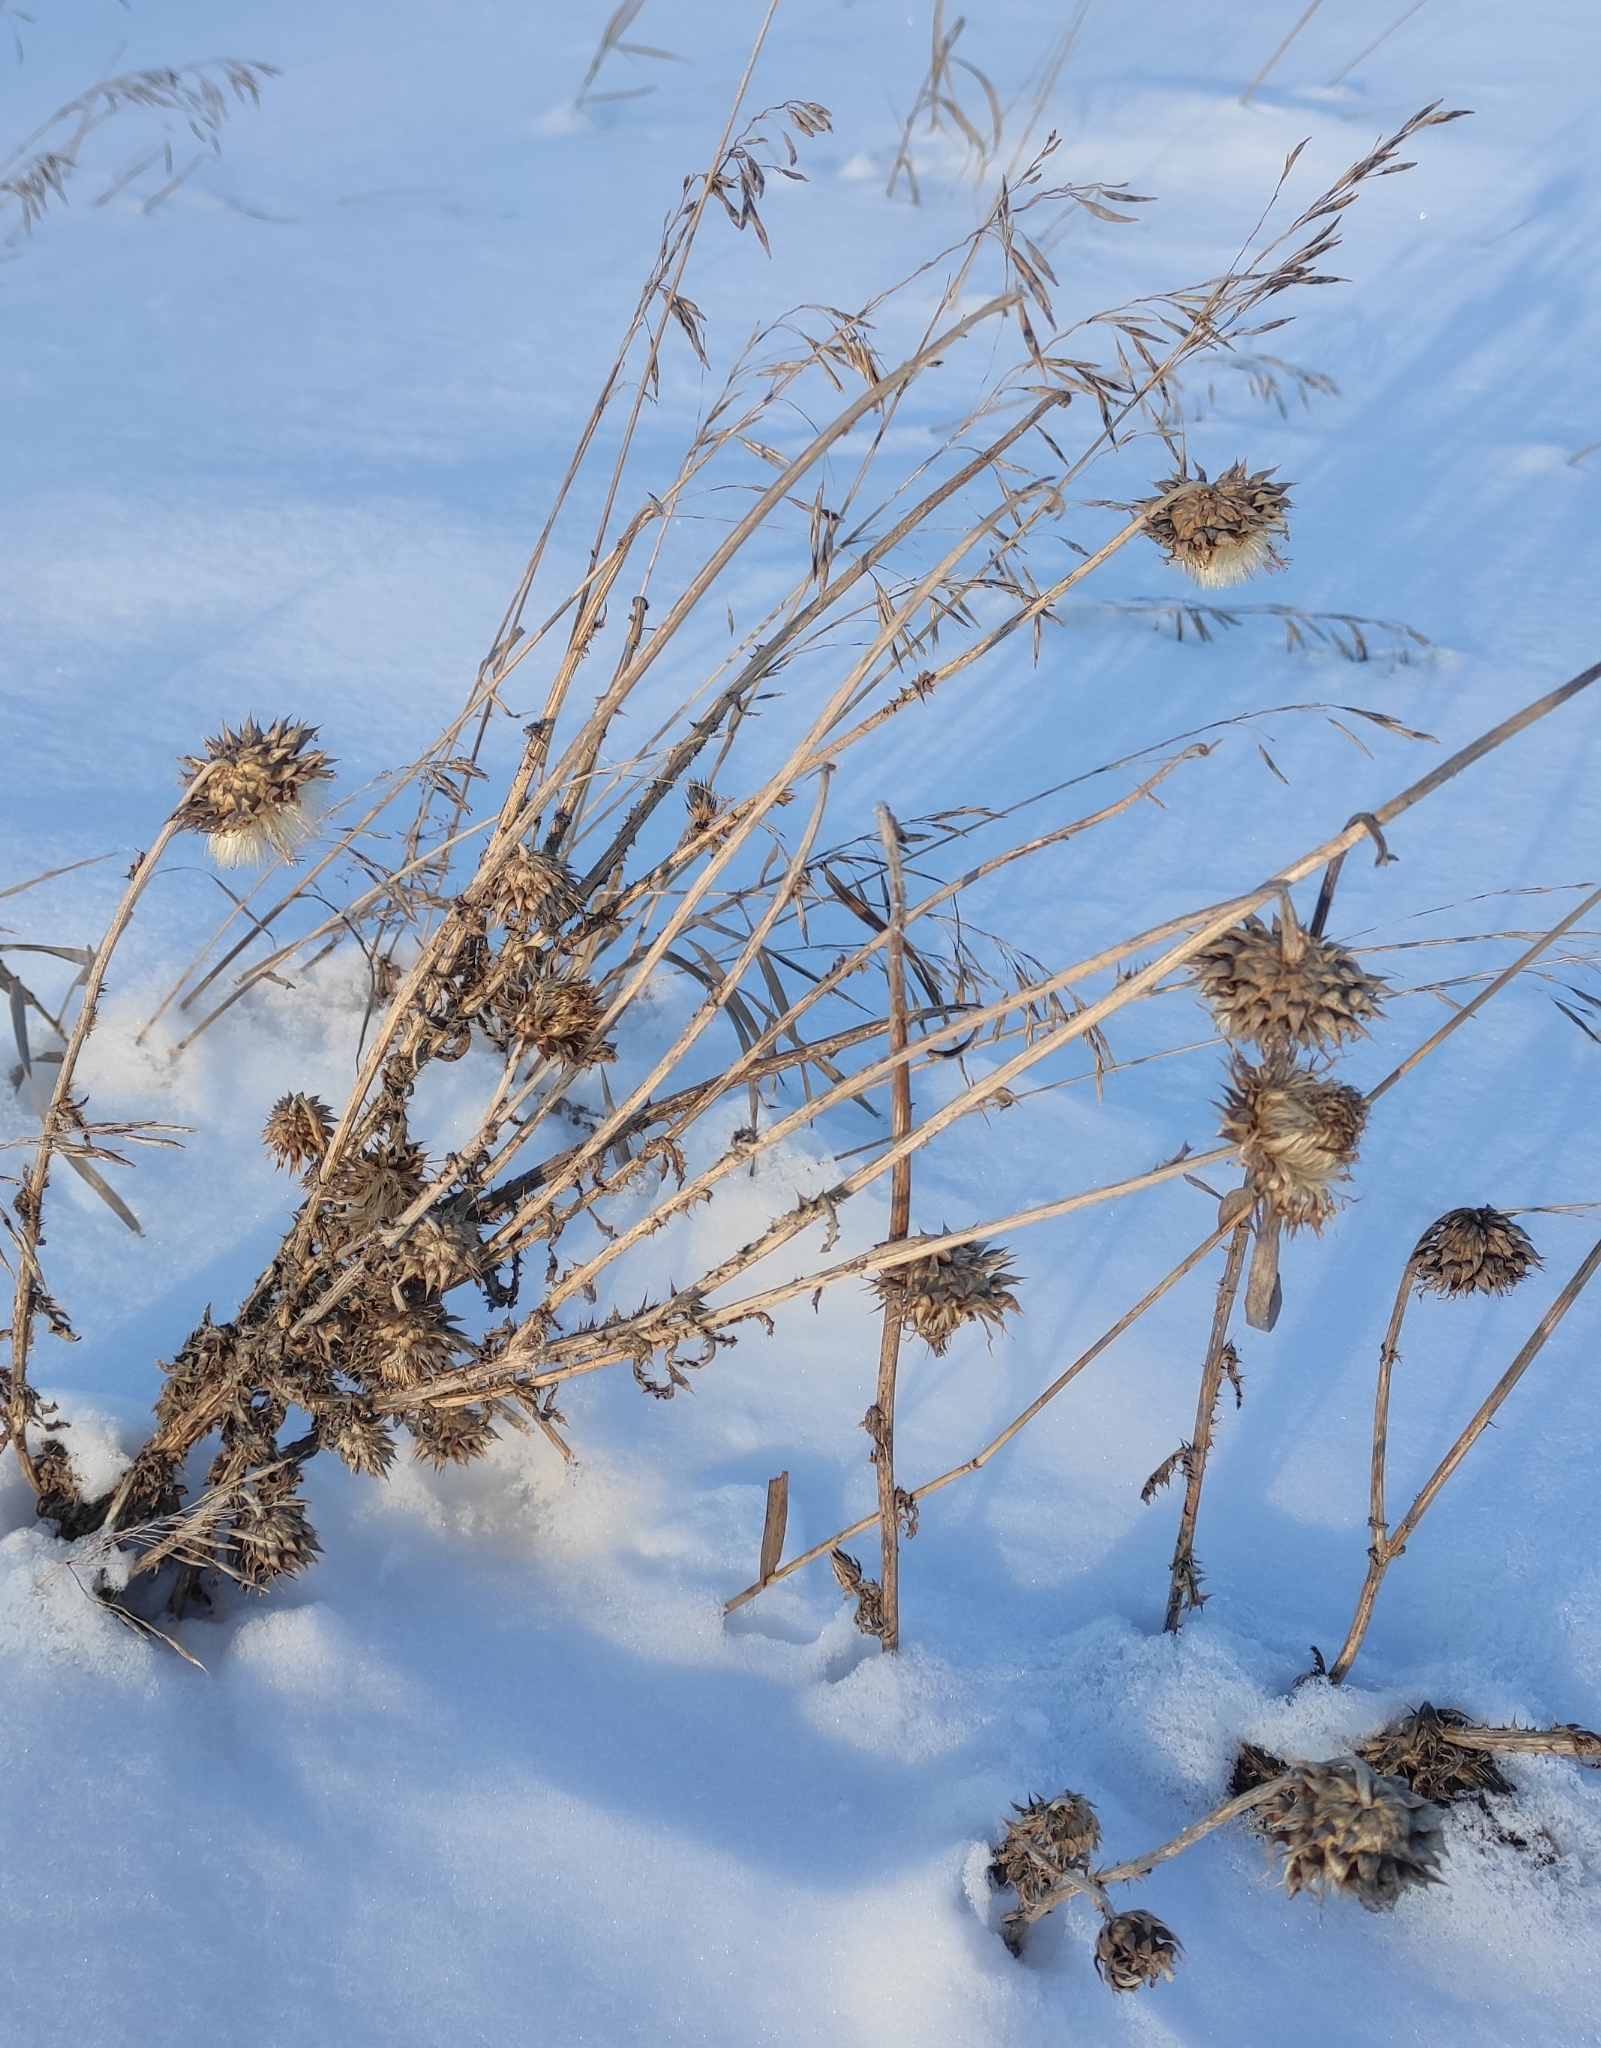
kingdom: Plantae
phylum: Tracheophyta
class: Magnoliopsida
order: Asterales
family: Asteraceae
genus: Carduus
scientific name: Carduus nutans
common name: Musk thistle
